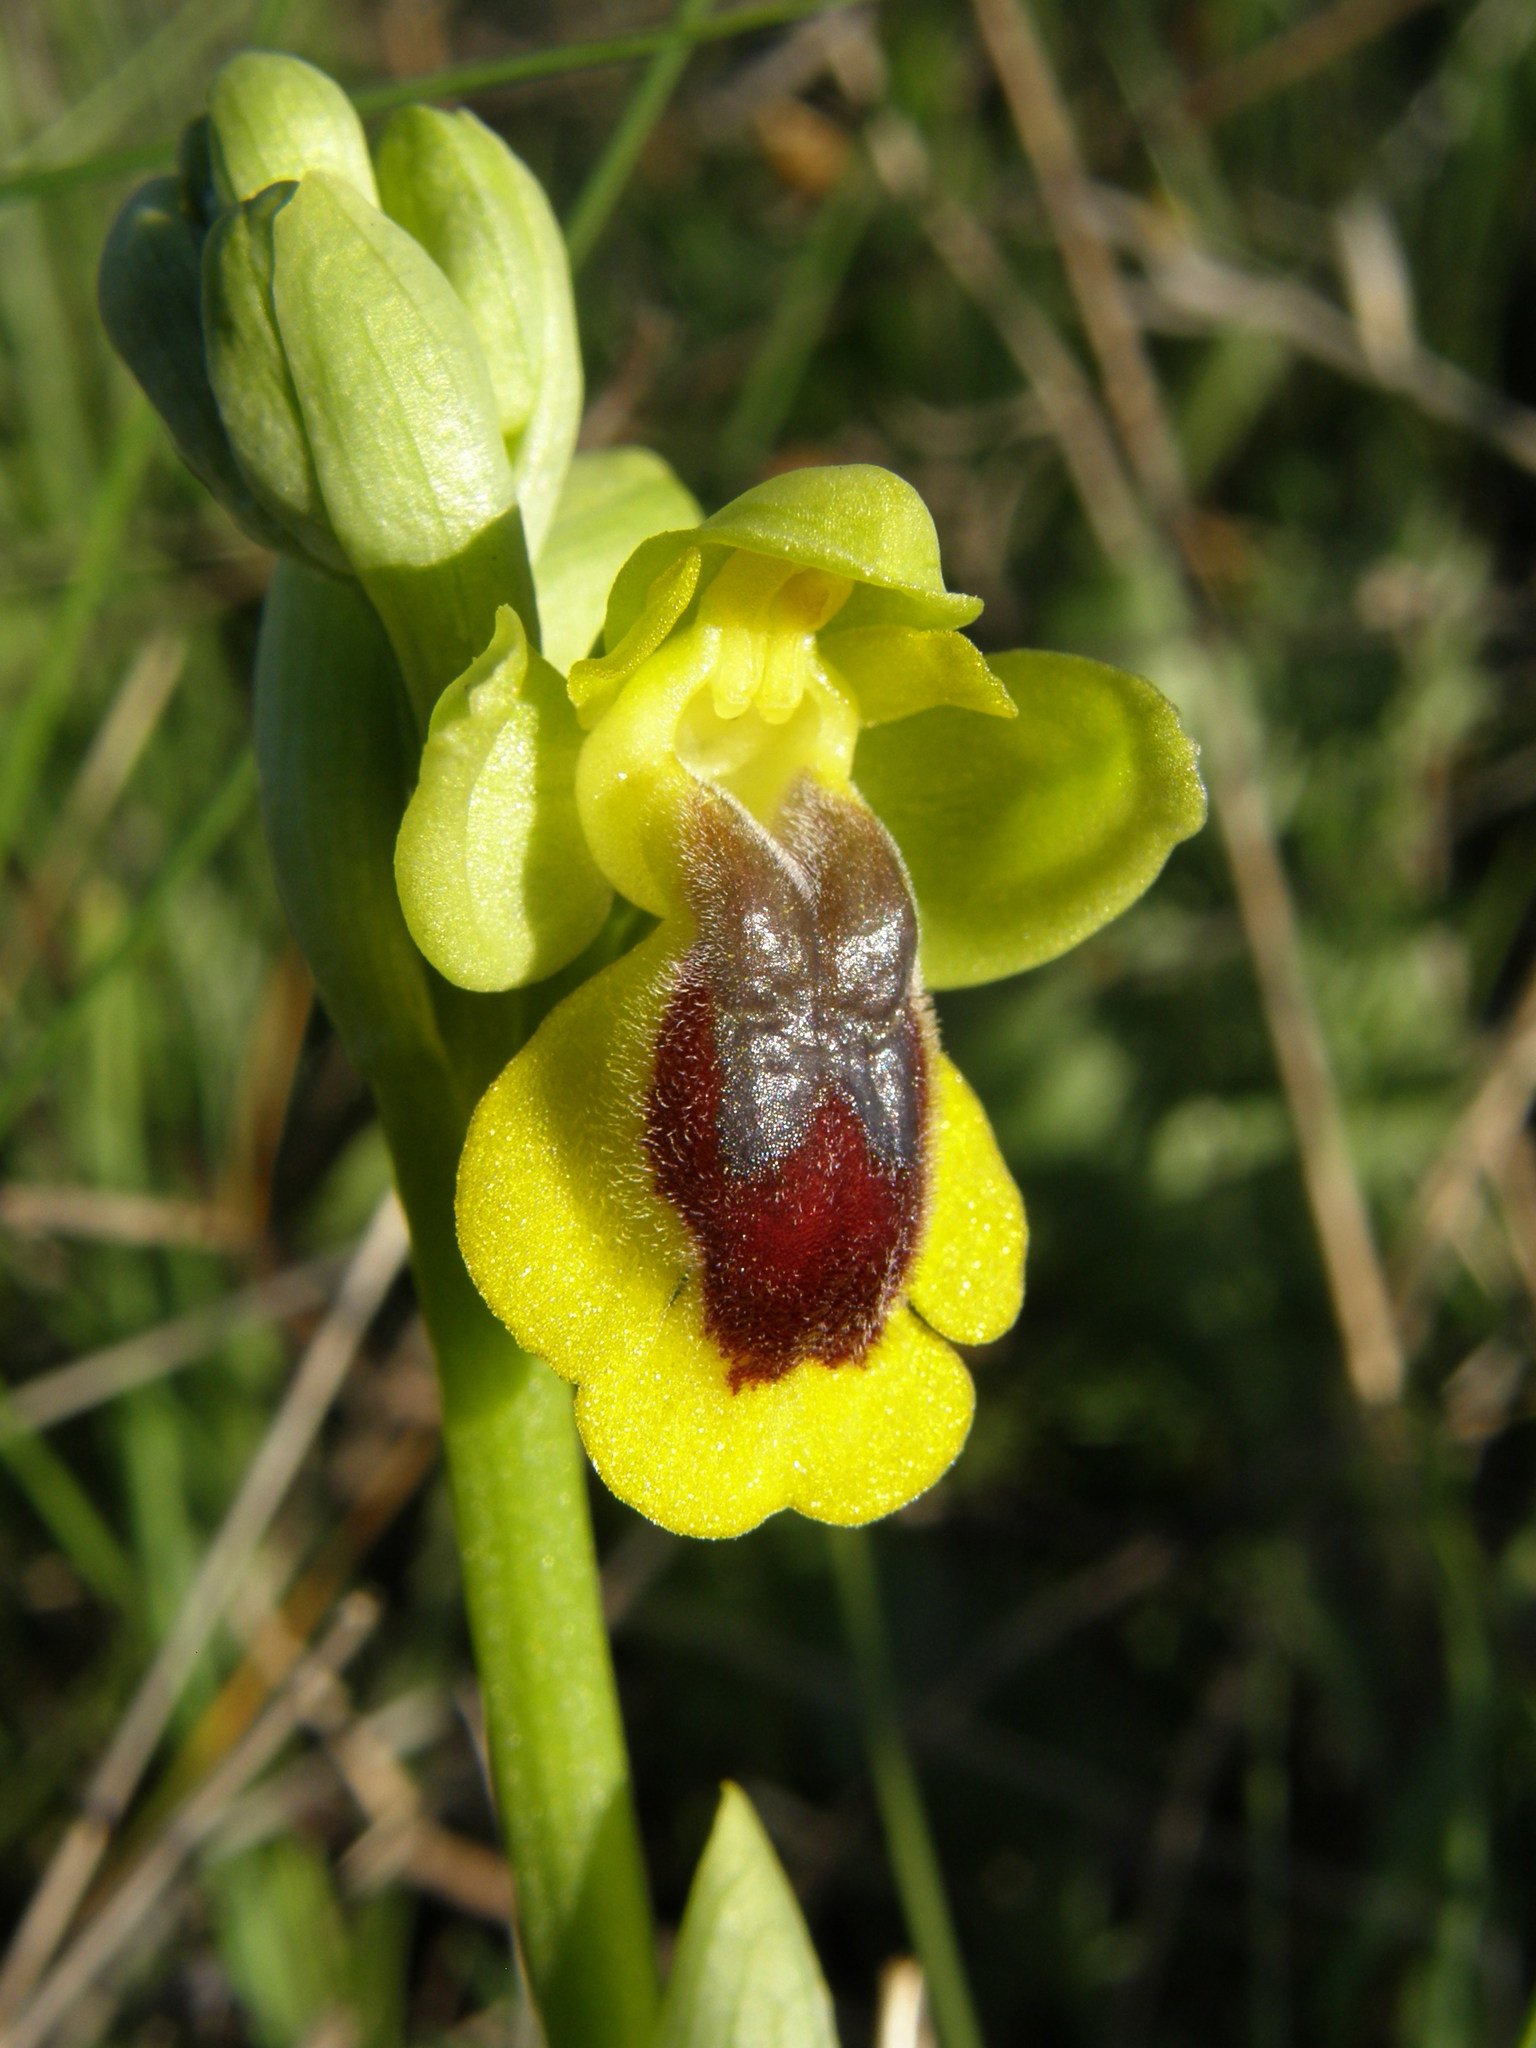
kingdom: Plantae
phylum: Tracheophyta
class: Liliopsida
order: Asparagales
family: Orchidaceae
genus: Ophrys
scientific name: Ophrys lutea
